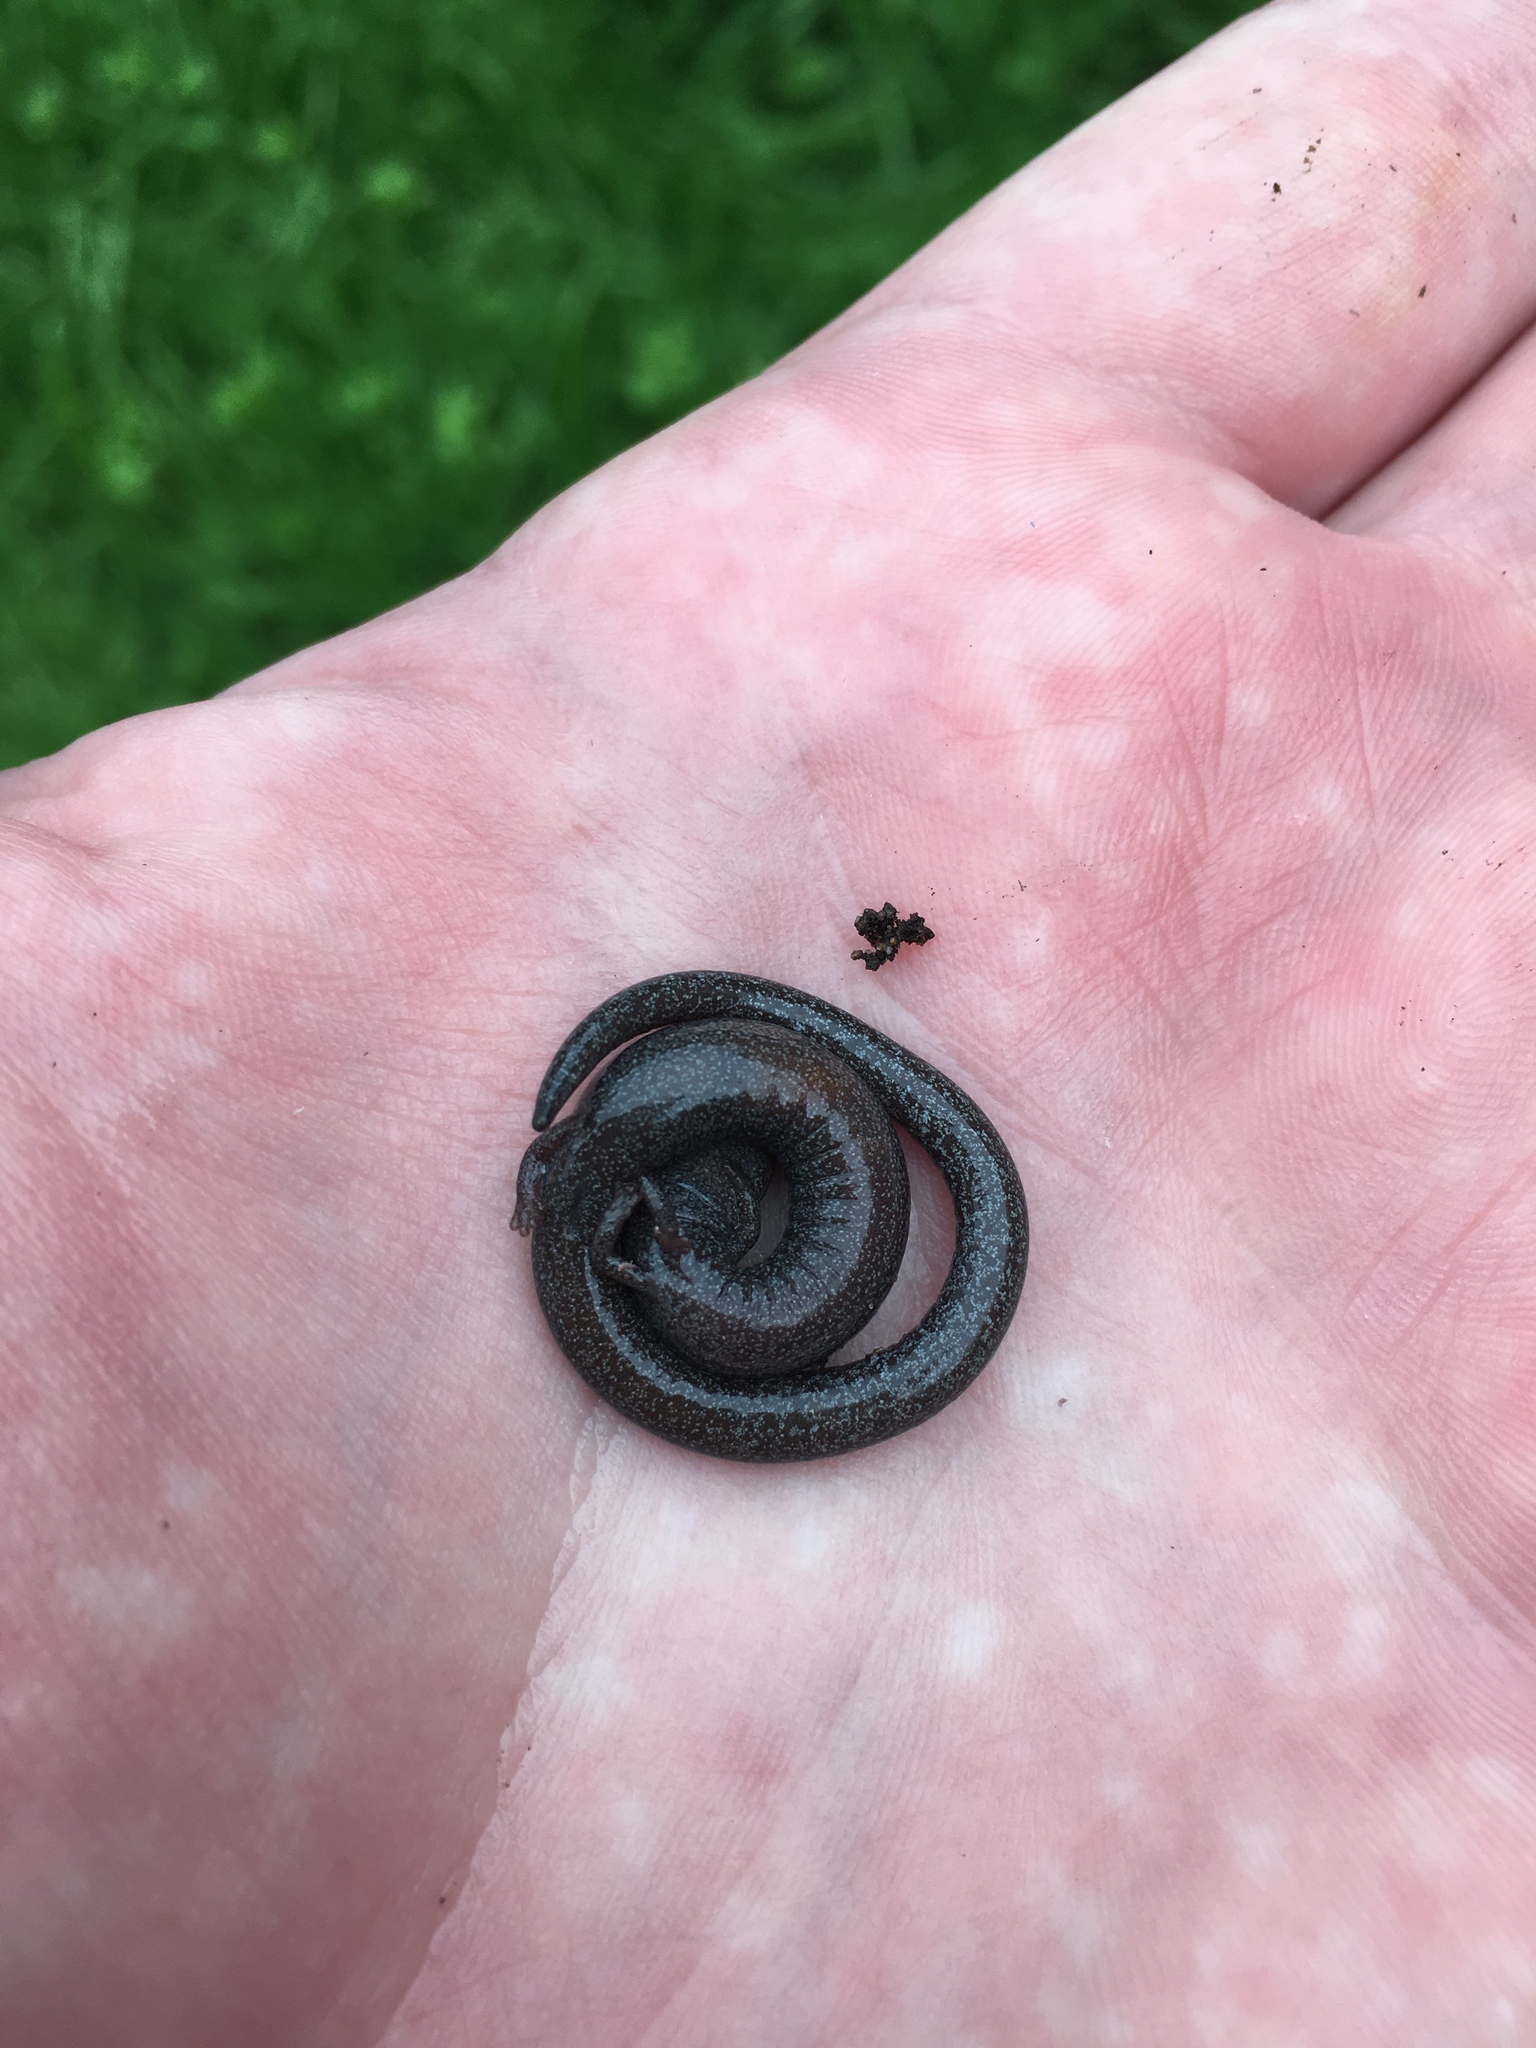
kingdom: Animalia
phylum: Chordata
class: Amphibia
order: Caudata
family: Plethodontidae
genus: Batrachoseps
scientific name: Batrachoseps nigriventris
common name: Black-bellied slender salamander
